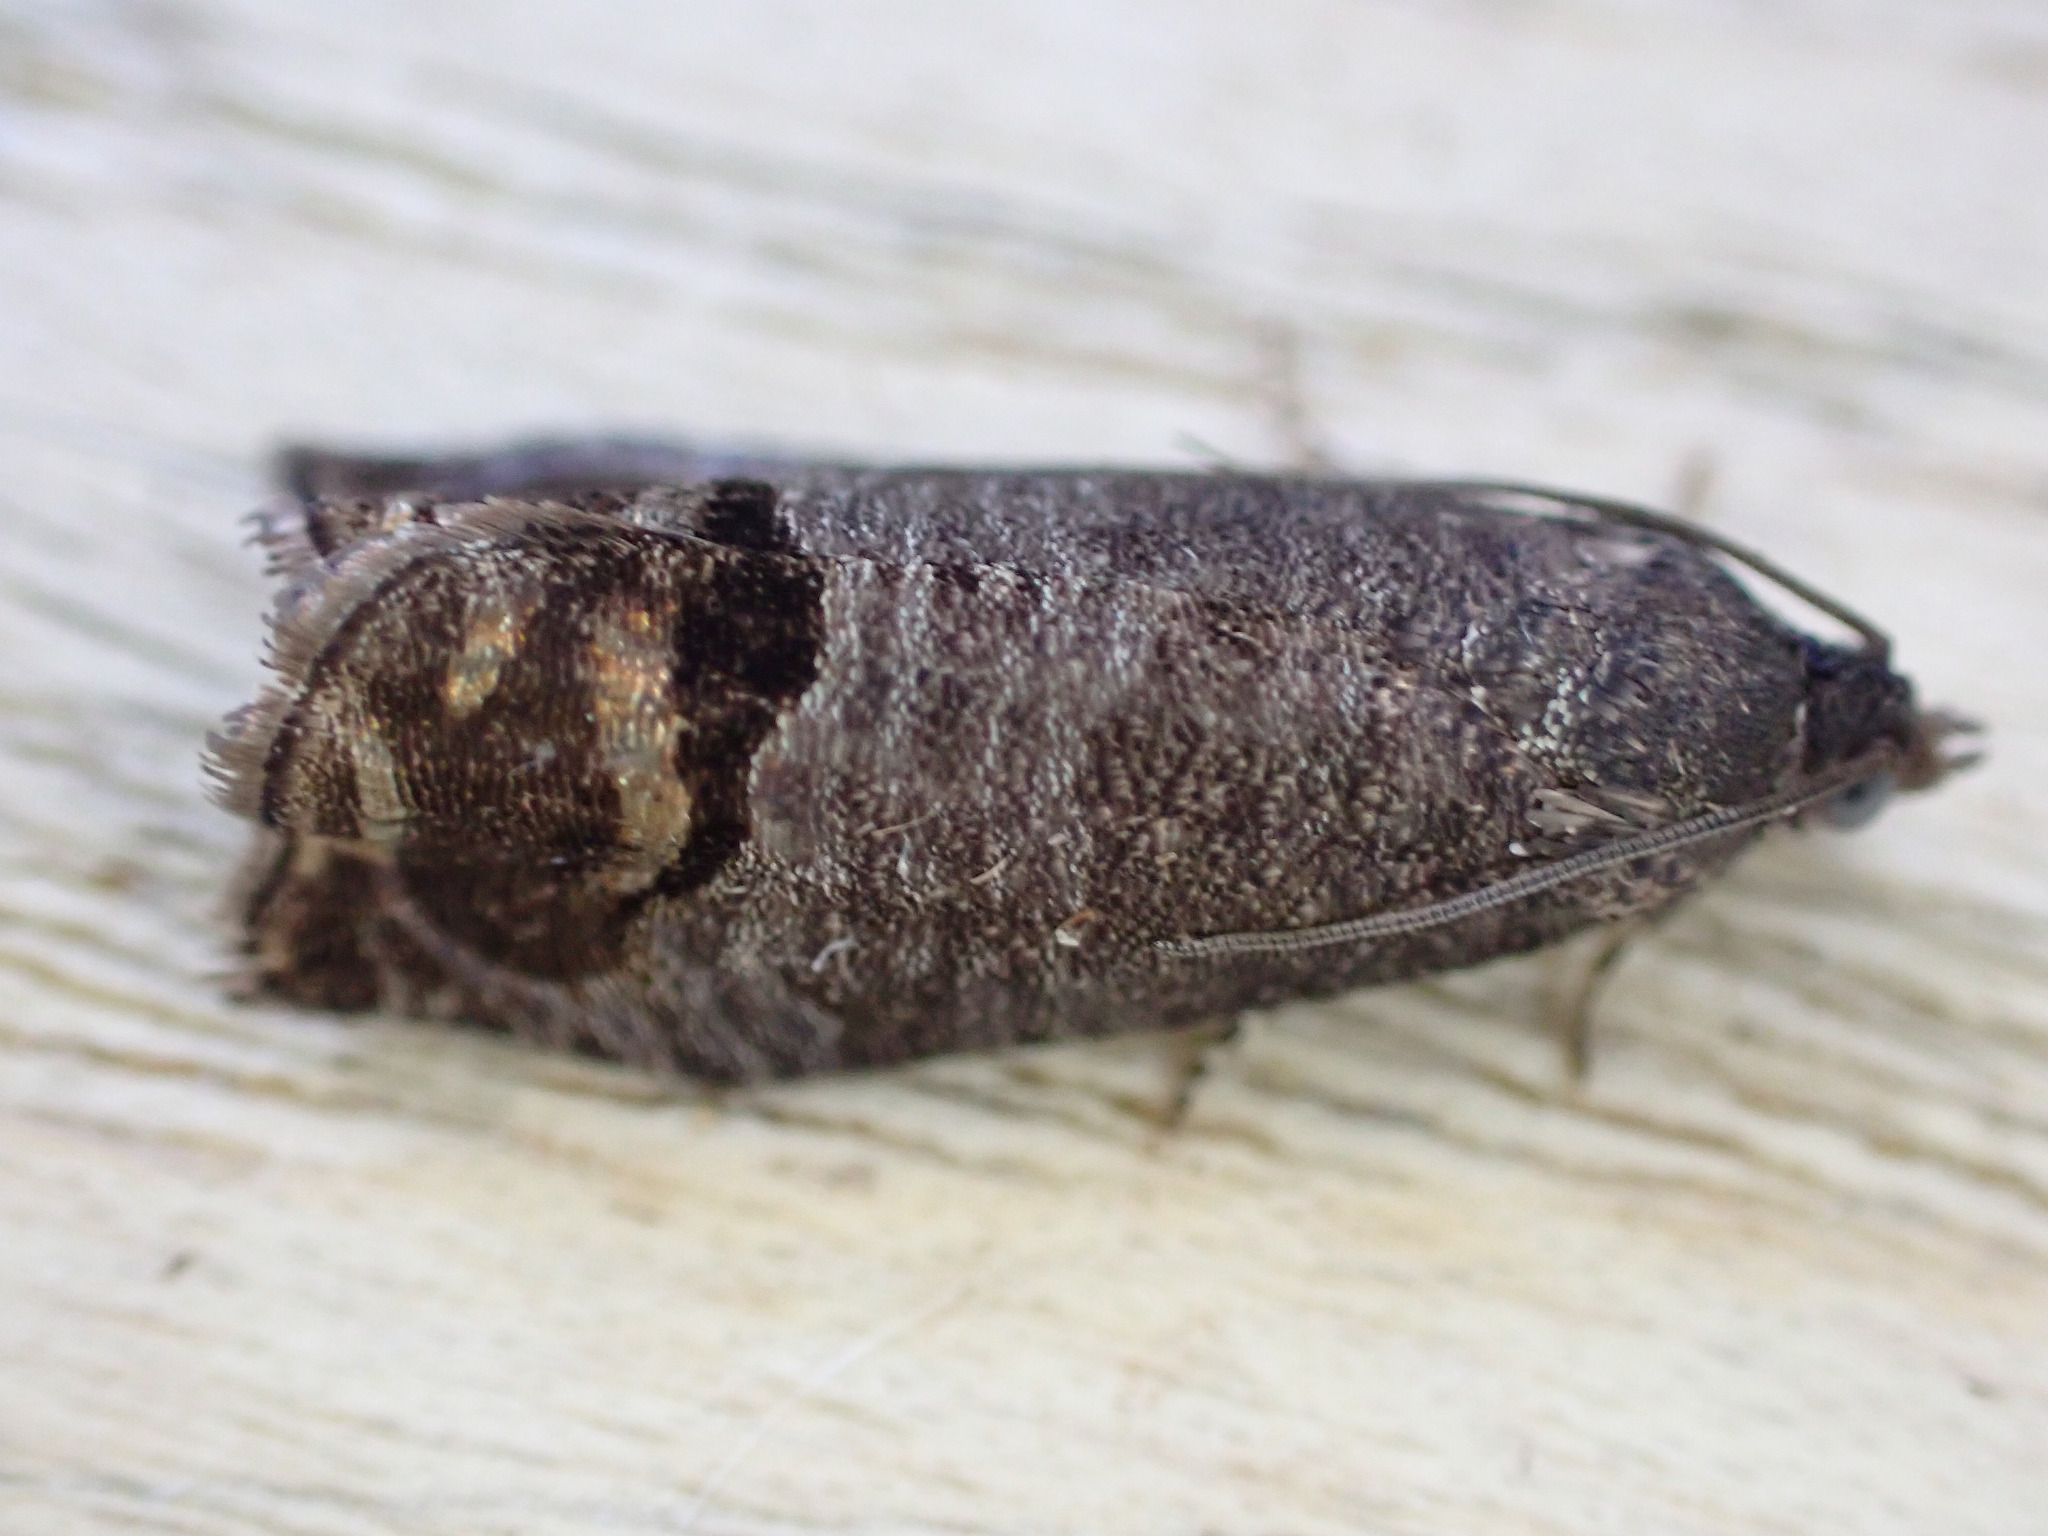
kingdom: Animalia
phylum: Arthropoda
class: Insecta
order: Lepidoptera
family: Tortricidae
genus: Cydia
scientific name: Cydia pomonella
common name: Codling moth
